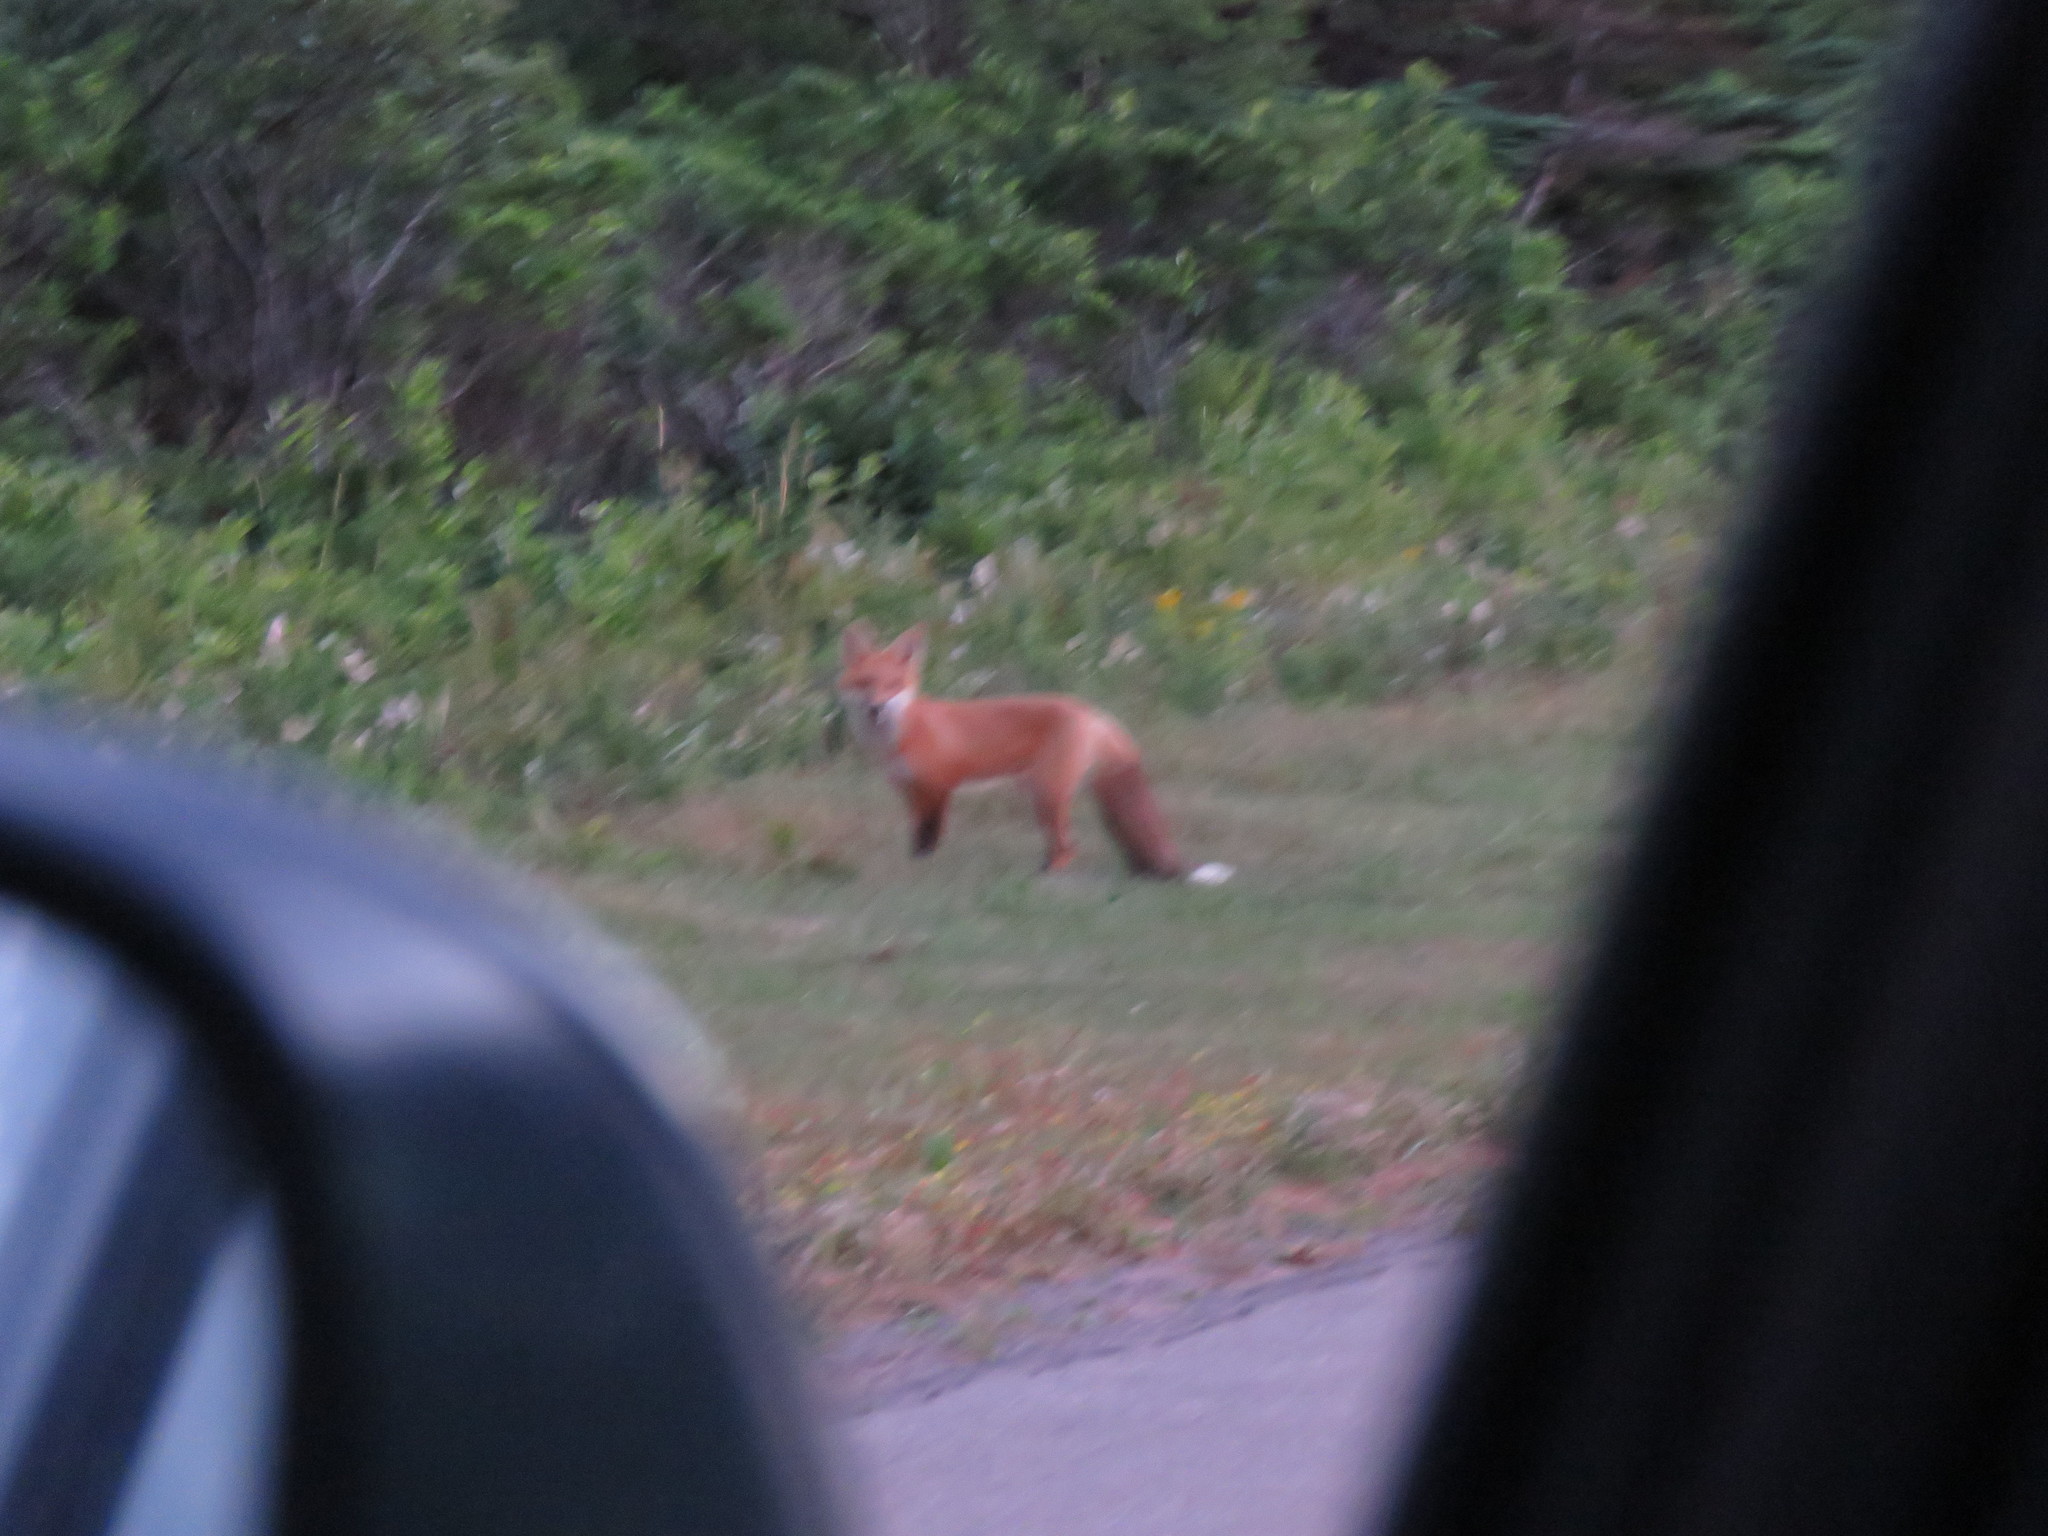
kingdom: Animalia
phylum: Chordata
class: Mammalia
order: Carnivora
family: Canidae
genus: Vulpes
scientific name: Vulpes vulpes
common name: Red fox
